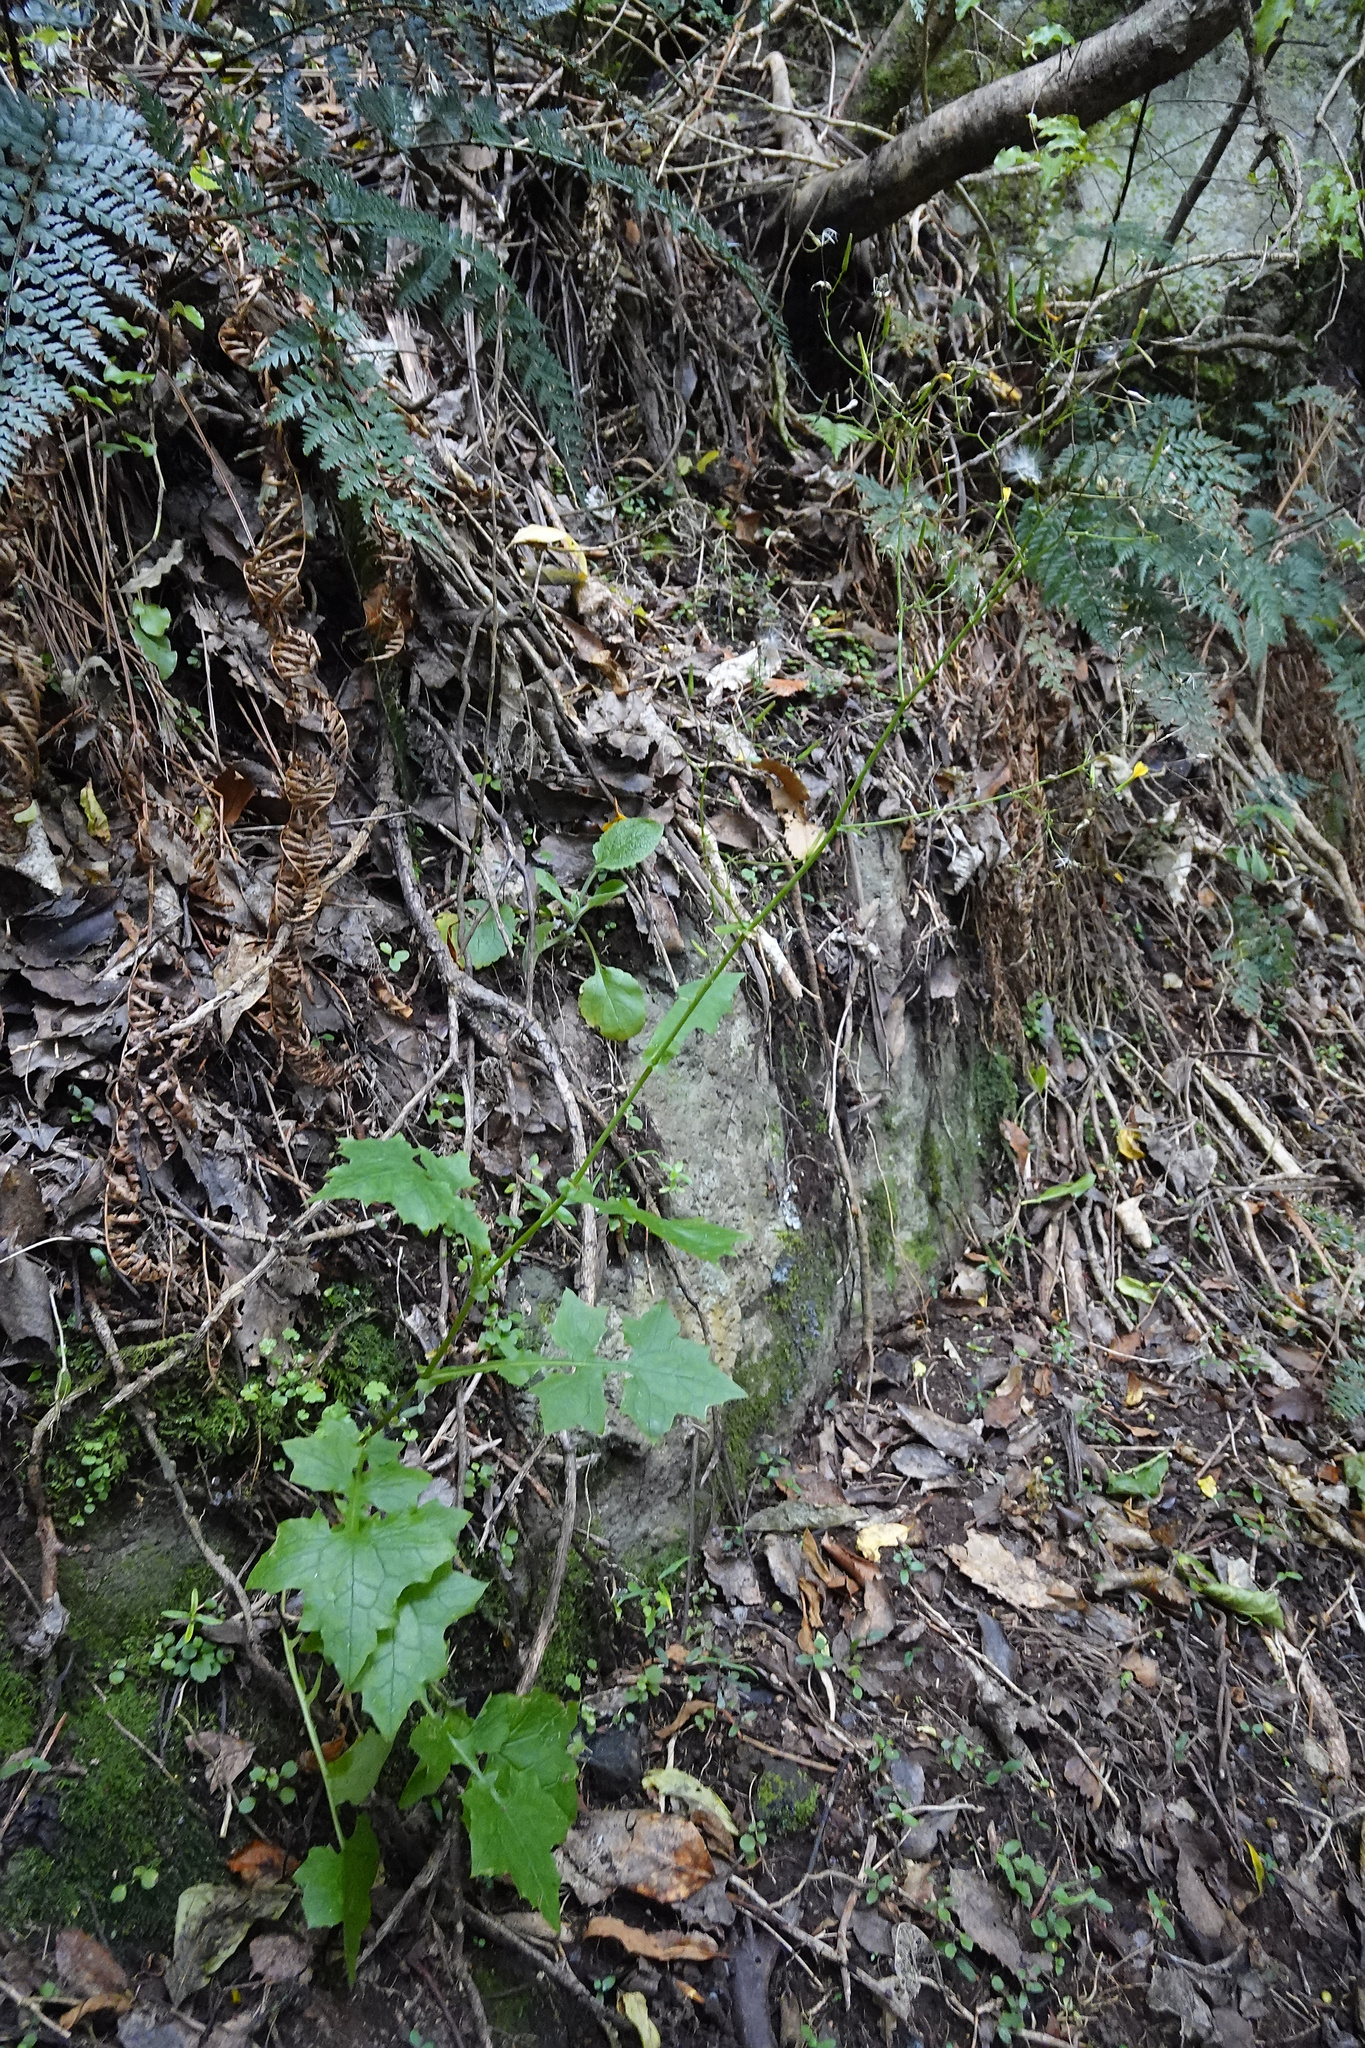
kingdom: Plantae
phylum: Tracheophyta
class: Magnoliopsida
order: Asterales
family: Asteraceae
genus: Mycelis
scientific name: Mycelis muralis
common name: Wall lettuce
